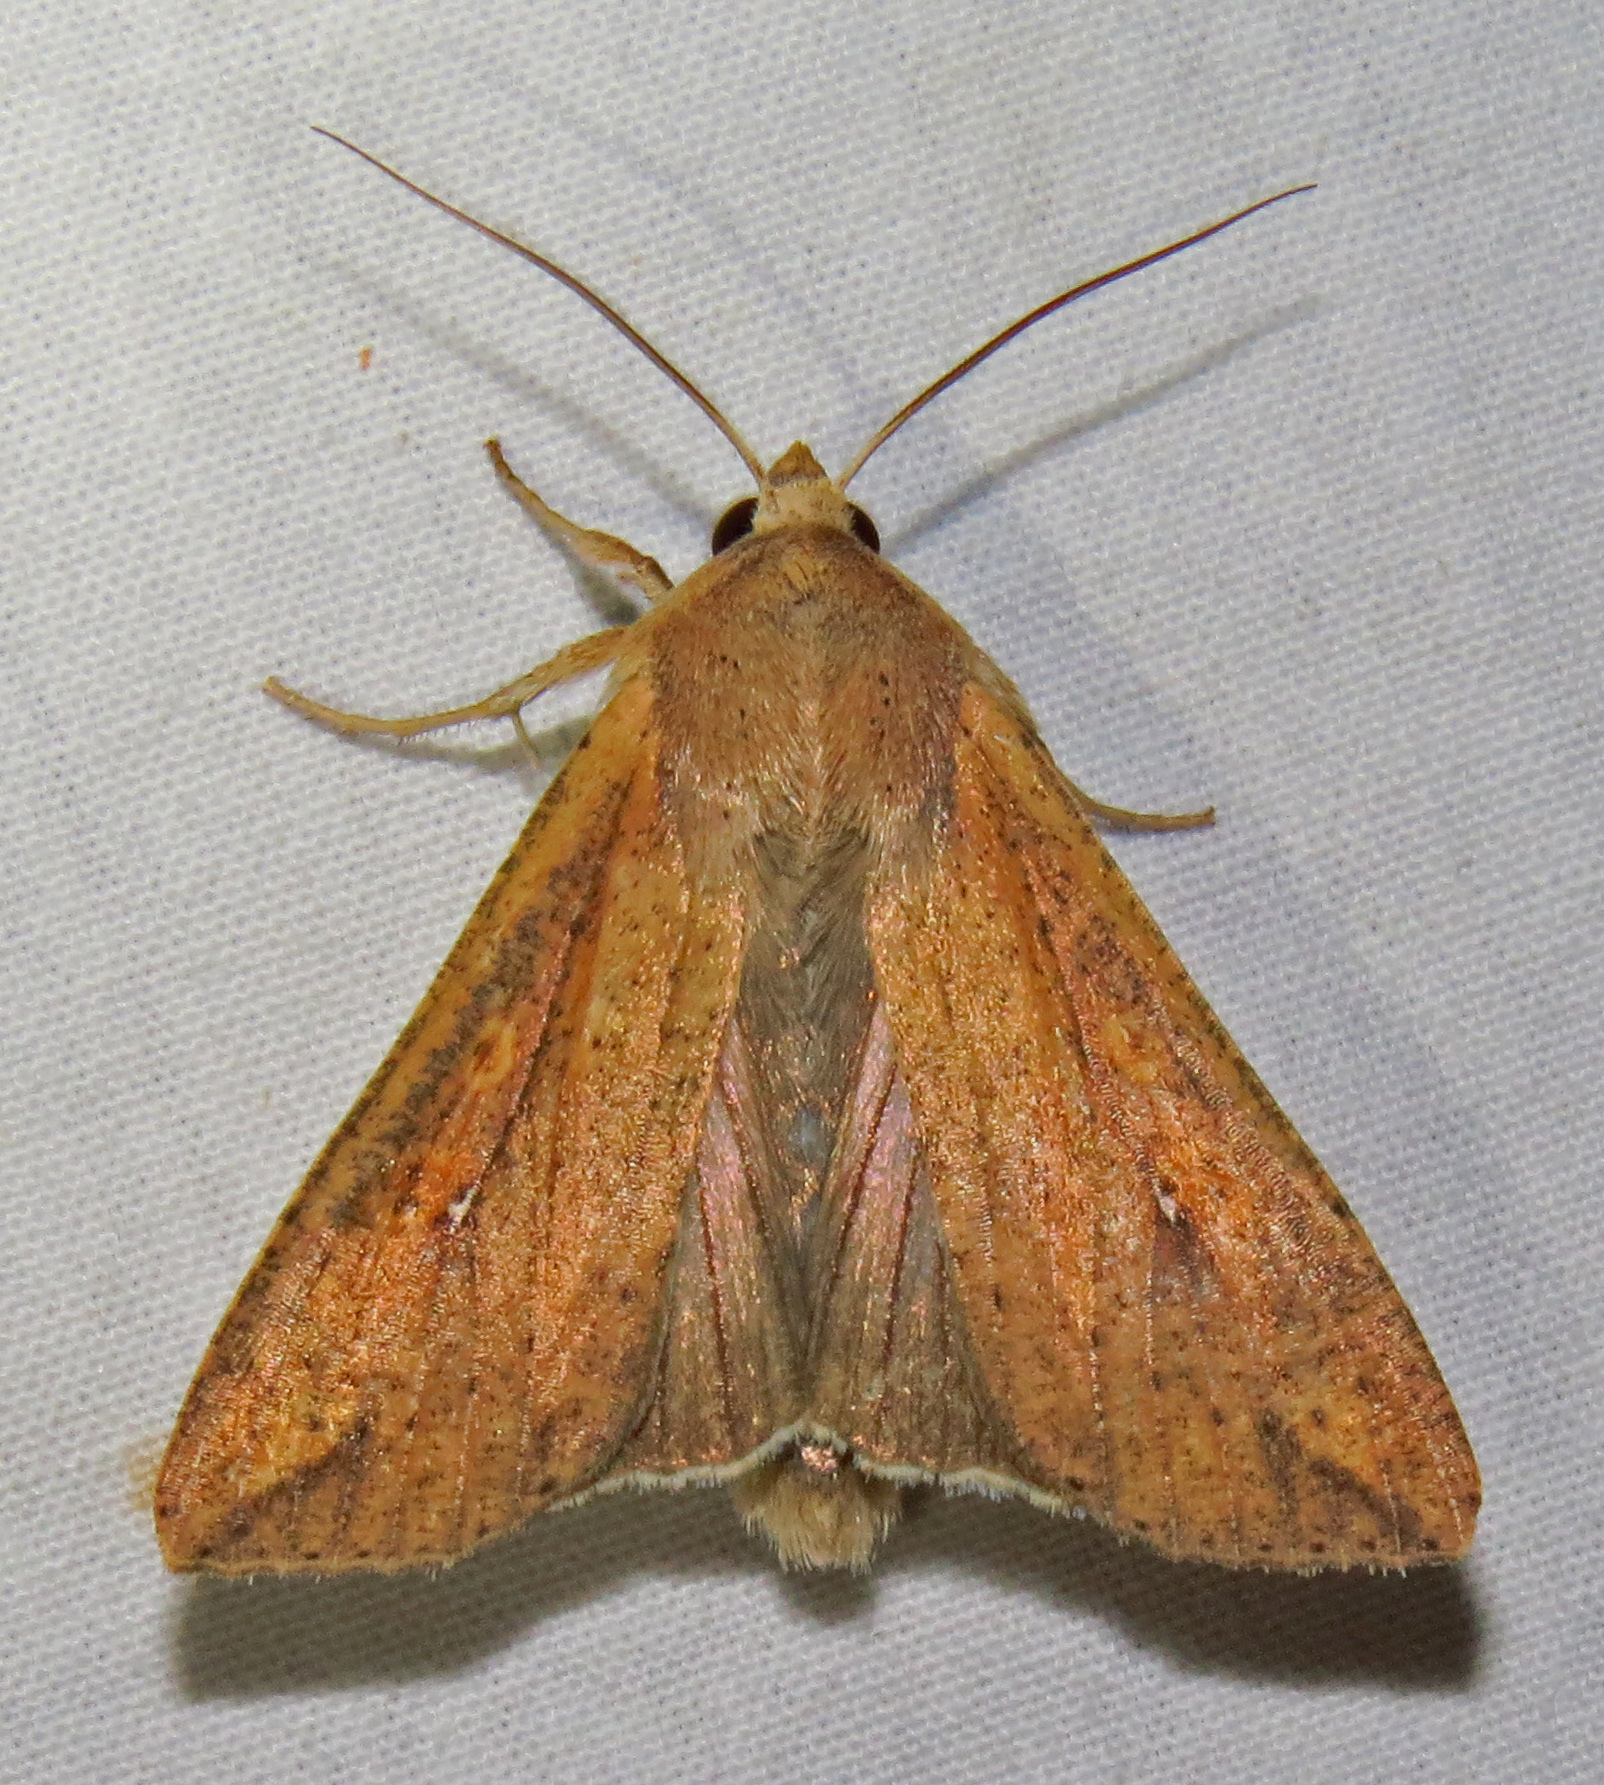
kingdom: Animalia
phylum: Arthropoda
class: Insecta
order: Lepidoptera
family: Noctuidae
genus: Mythimna
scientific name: Mythimna unipuncta
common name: White-speck
